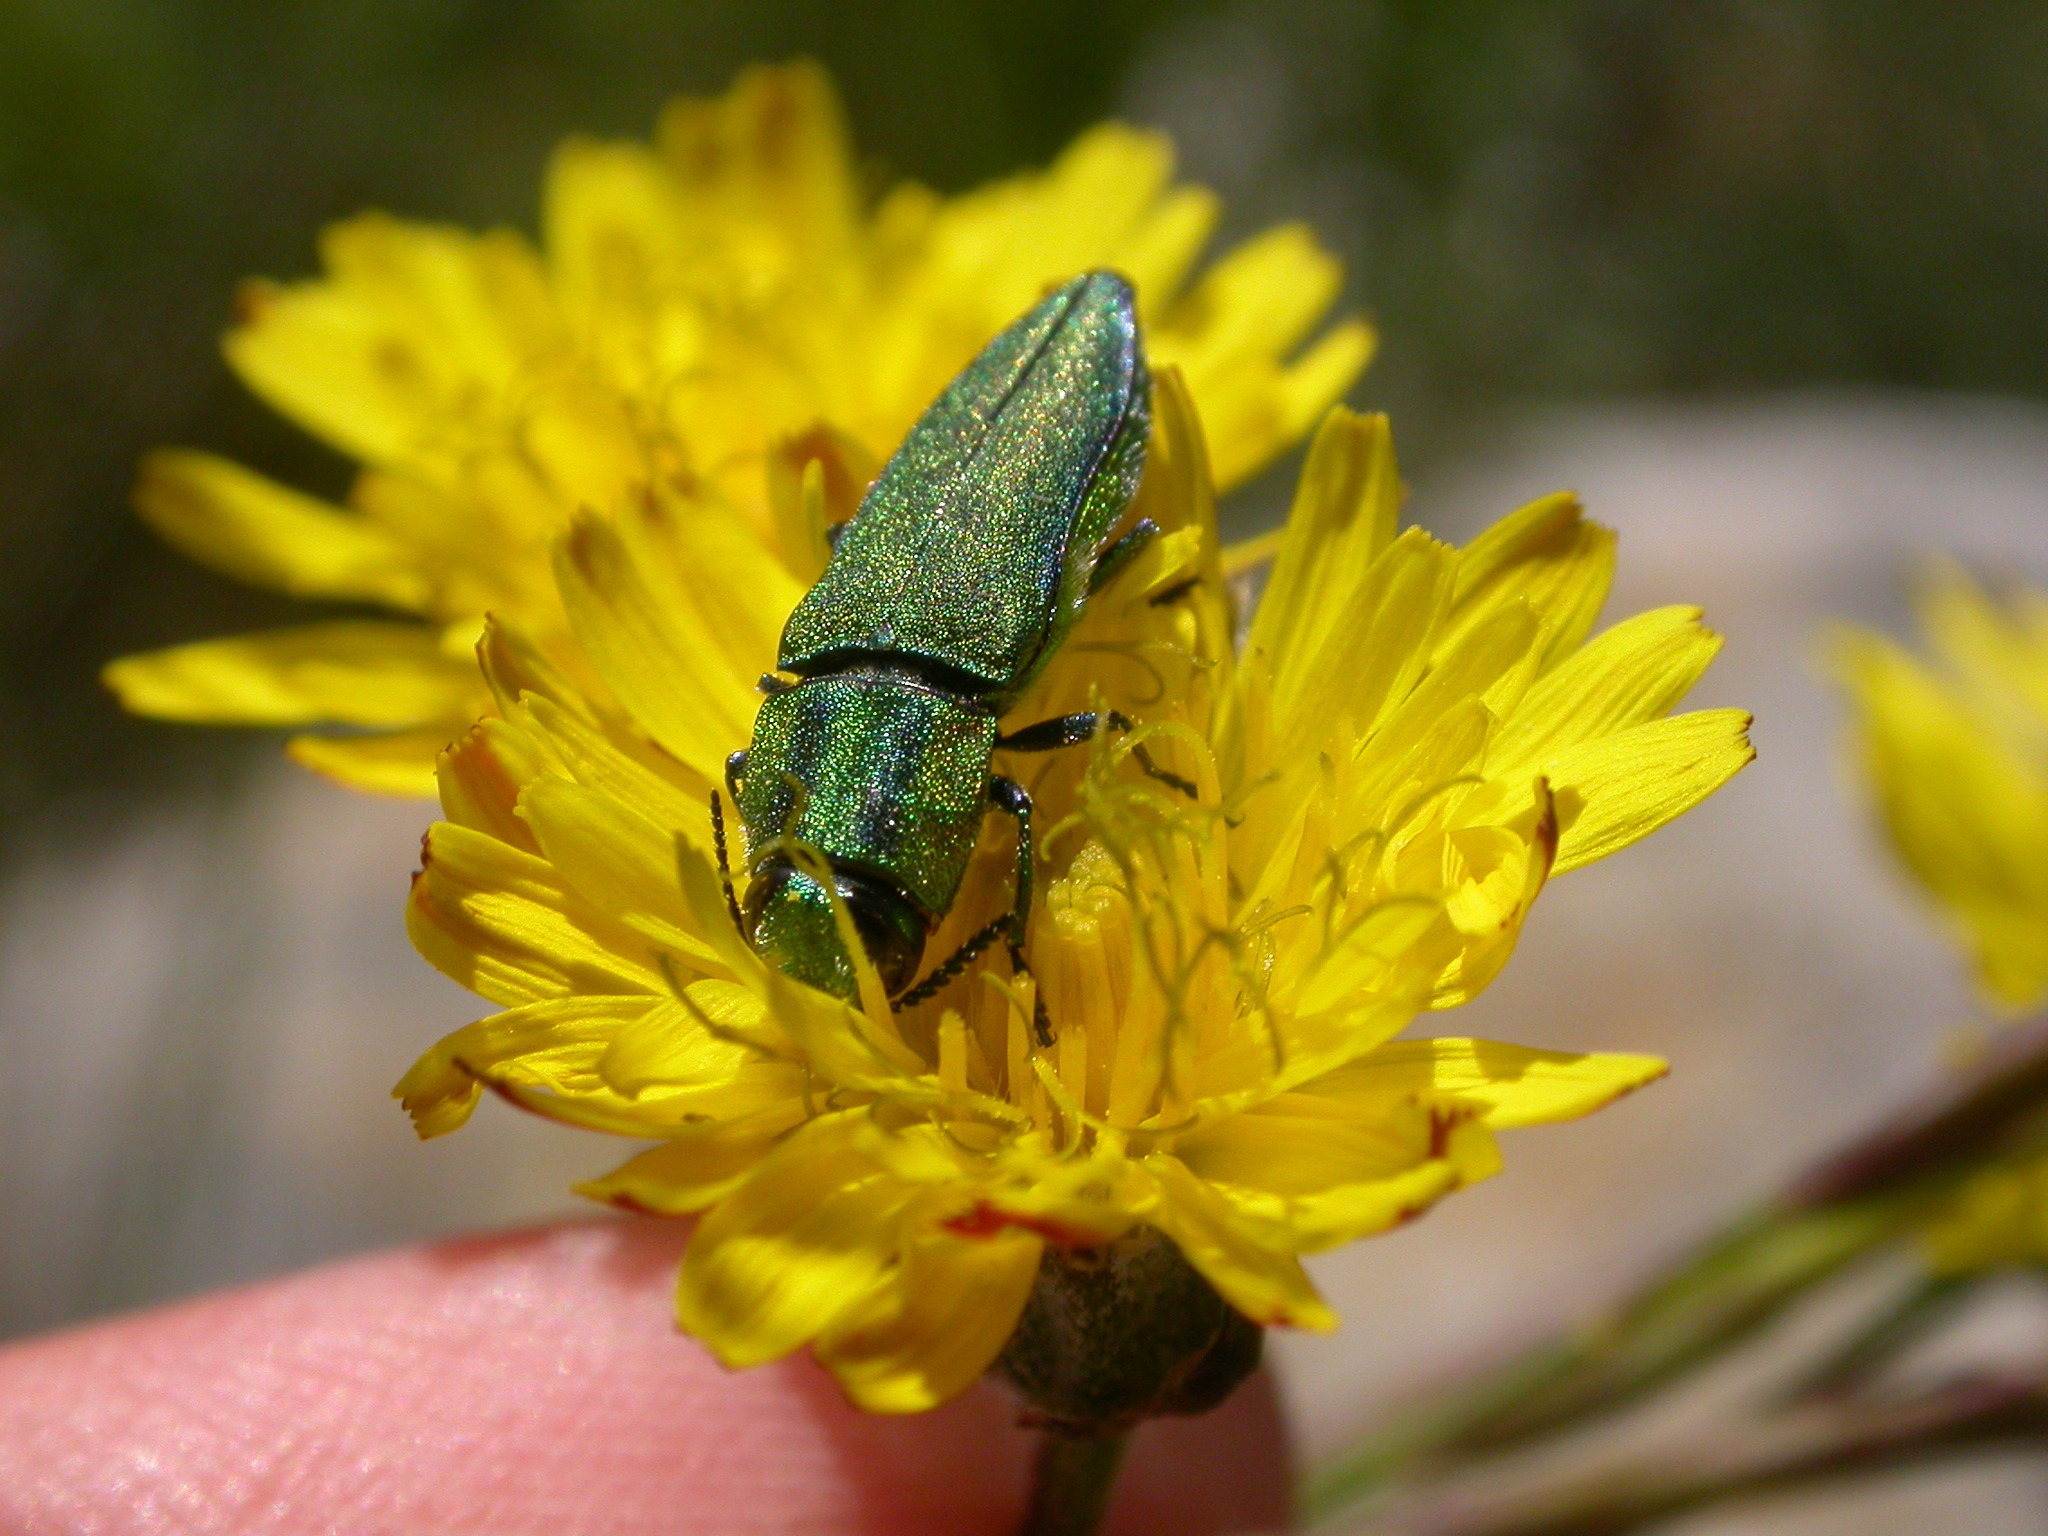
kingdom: Animalia
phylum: Arthropoda
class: Insecta
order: Coleoptera
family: Buprestidae
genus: Anthaxia
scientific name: Anthaxia hungarica
